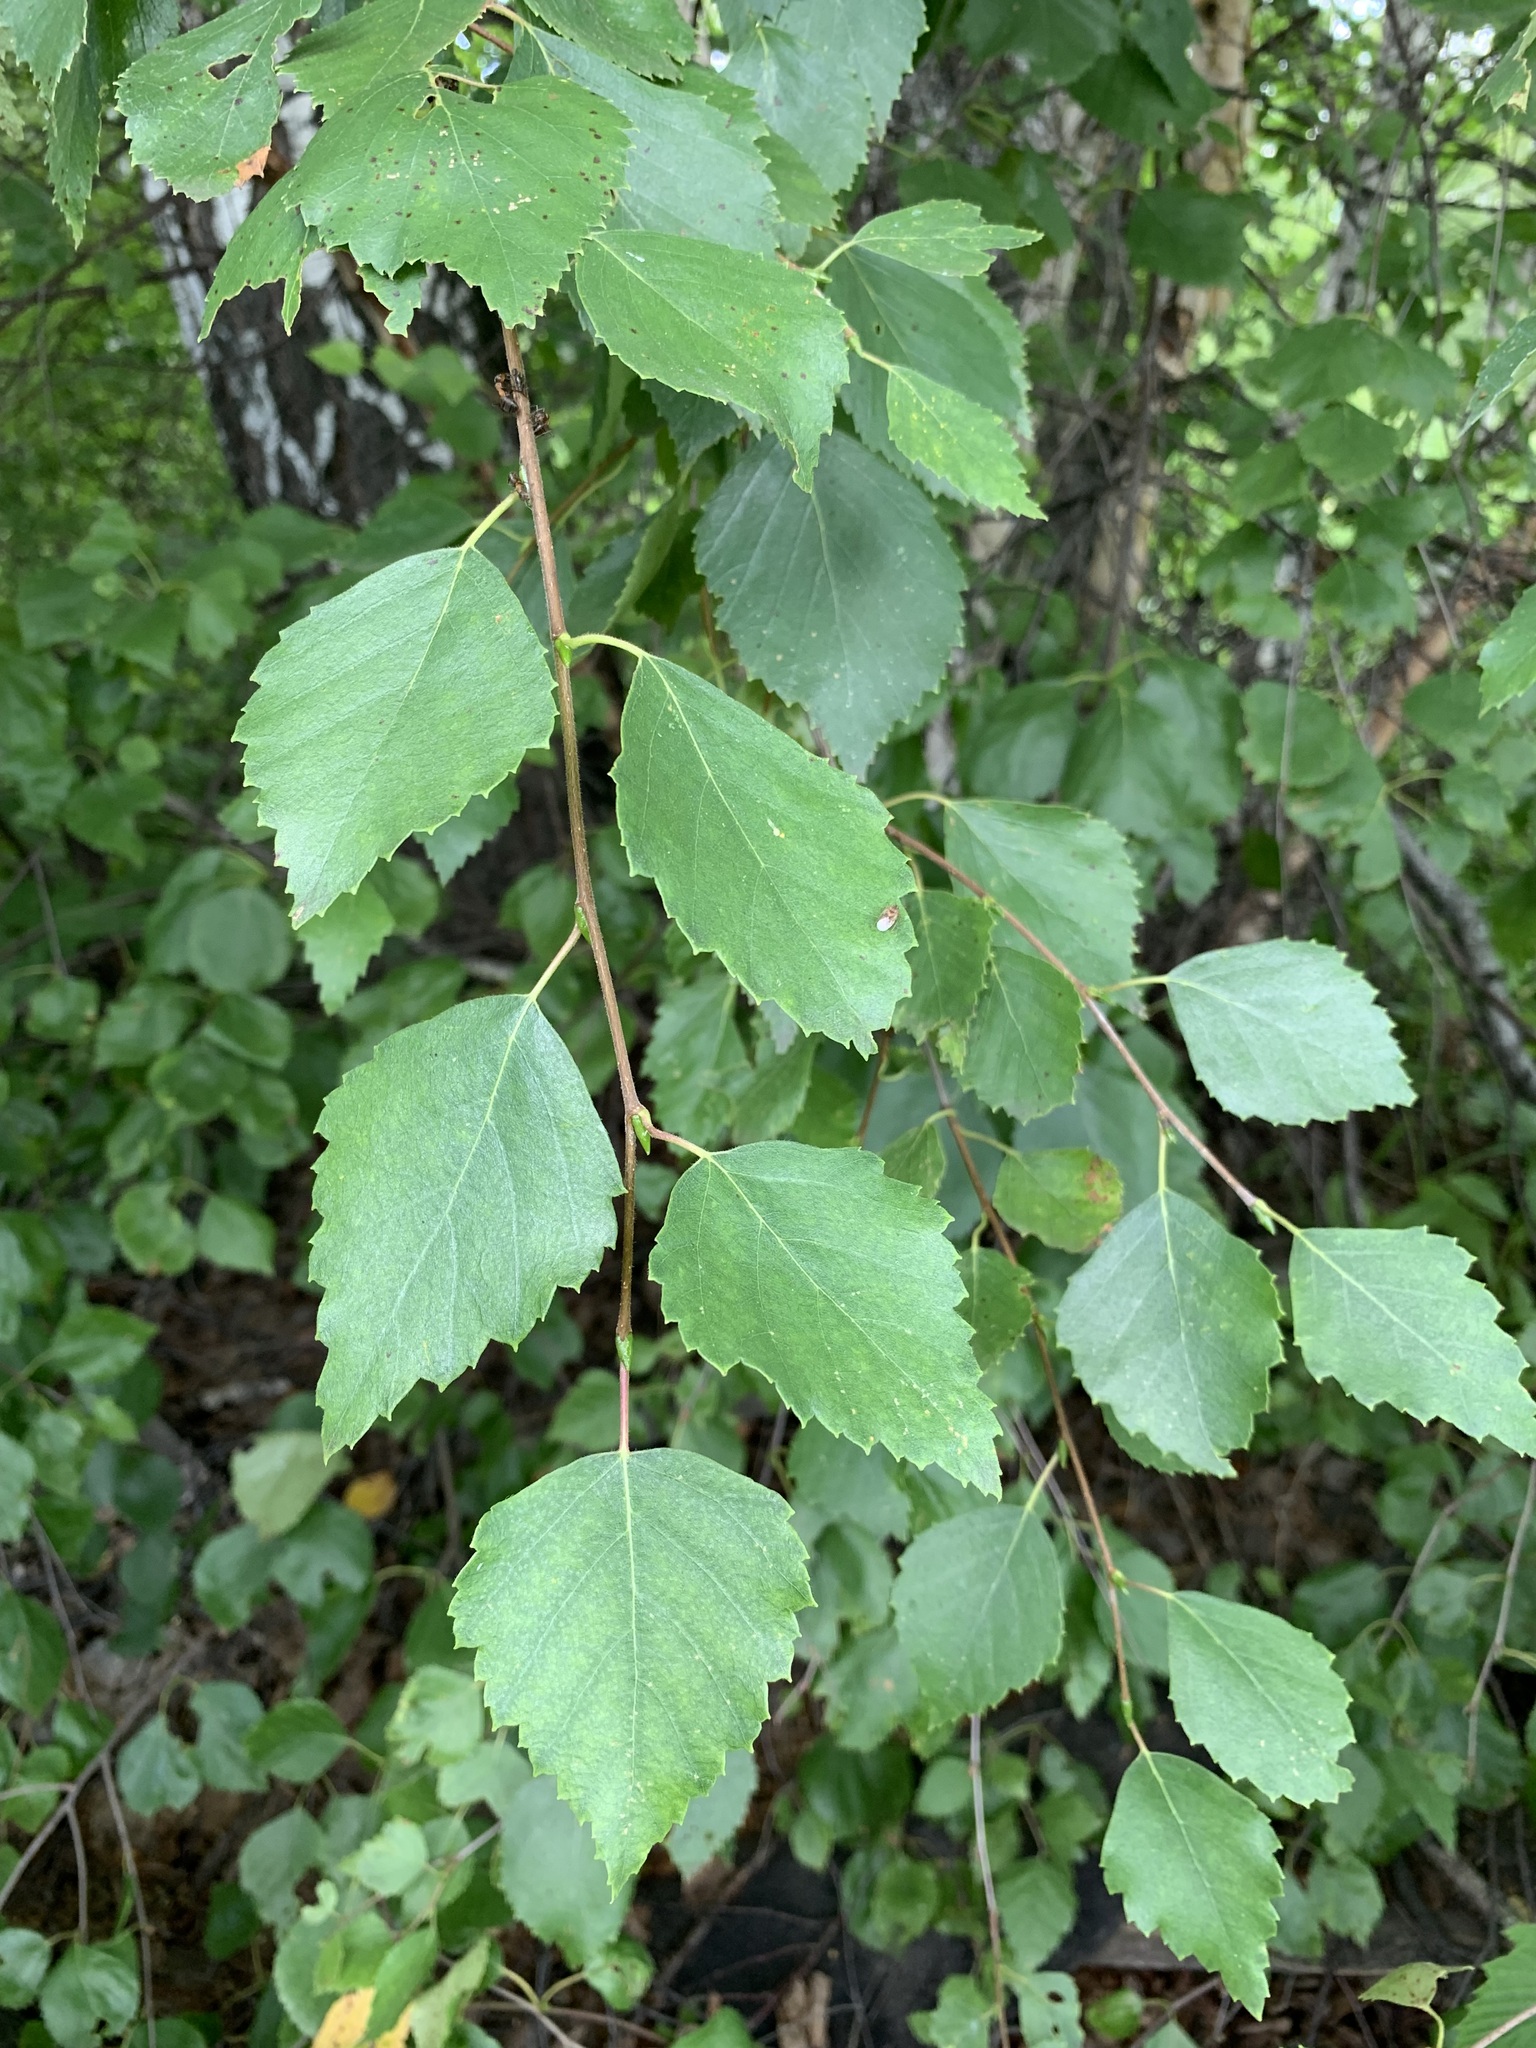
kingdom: Plantae
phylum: Tracheophyta
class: Magnoliopsida
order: Fagales
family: Betulaceae
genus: Betula
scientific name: Betula pendula
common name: Silver birch
